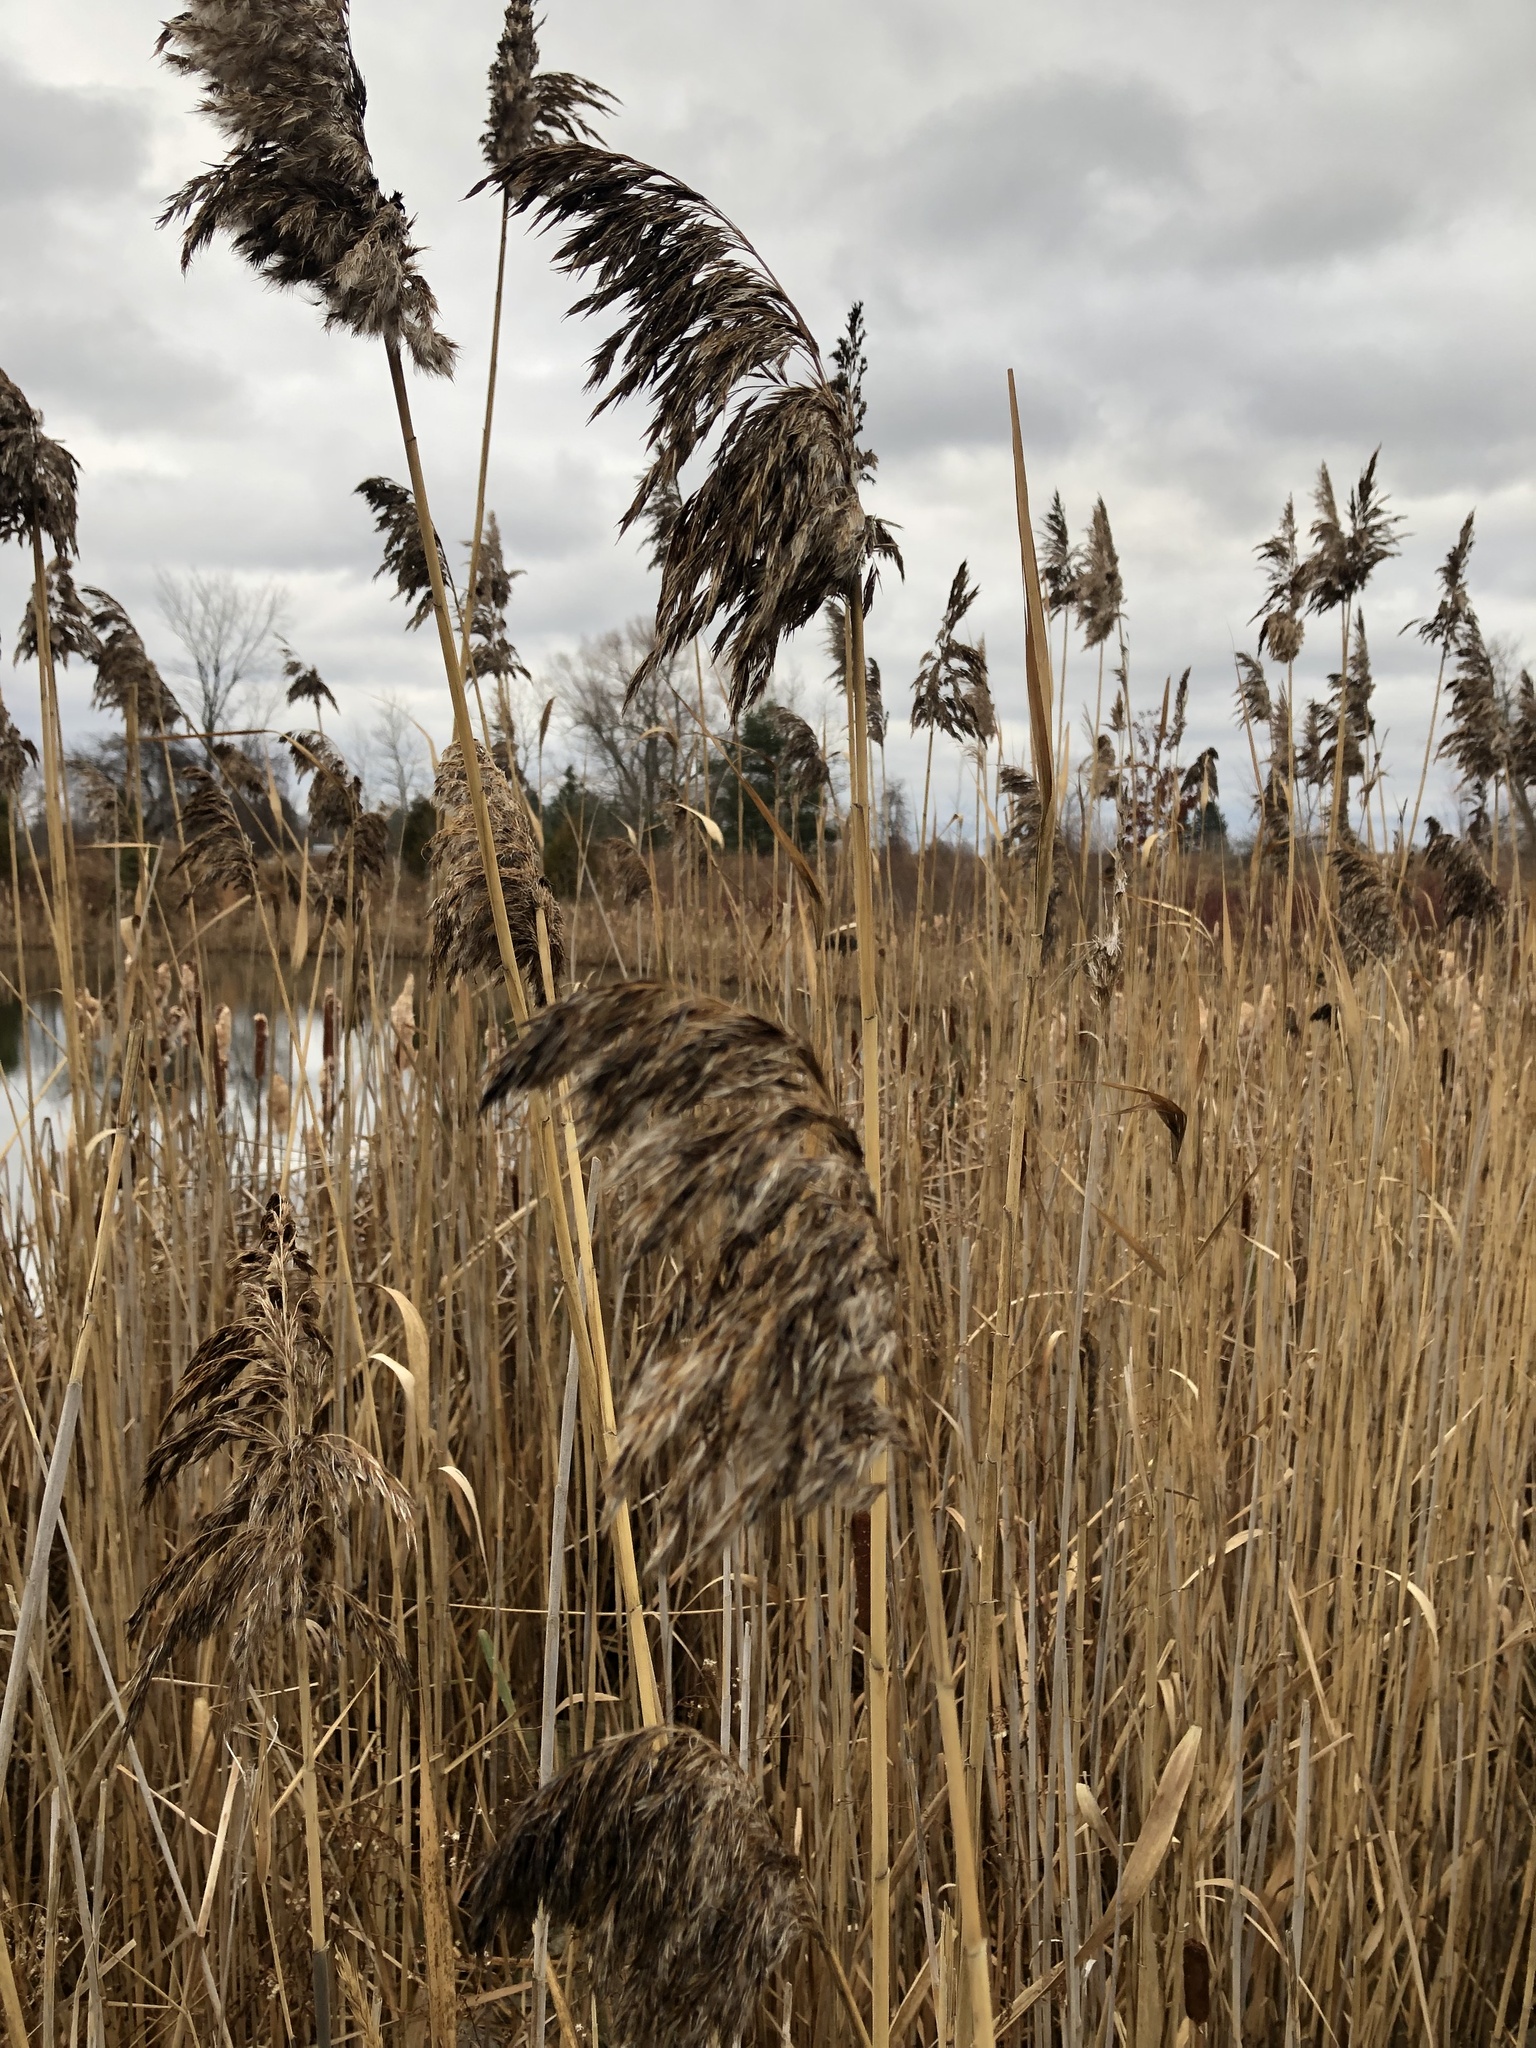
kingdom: Plantae
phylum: Tracheophyta
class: Liliopsida
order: Poales
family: Poaceae
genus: Phragmites
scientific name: Phragmites australis
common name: Common reed
